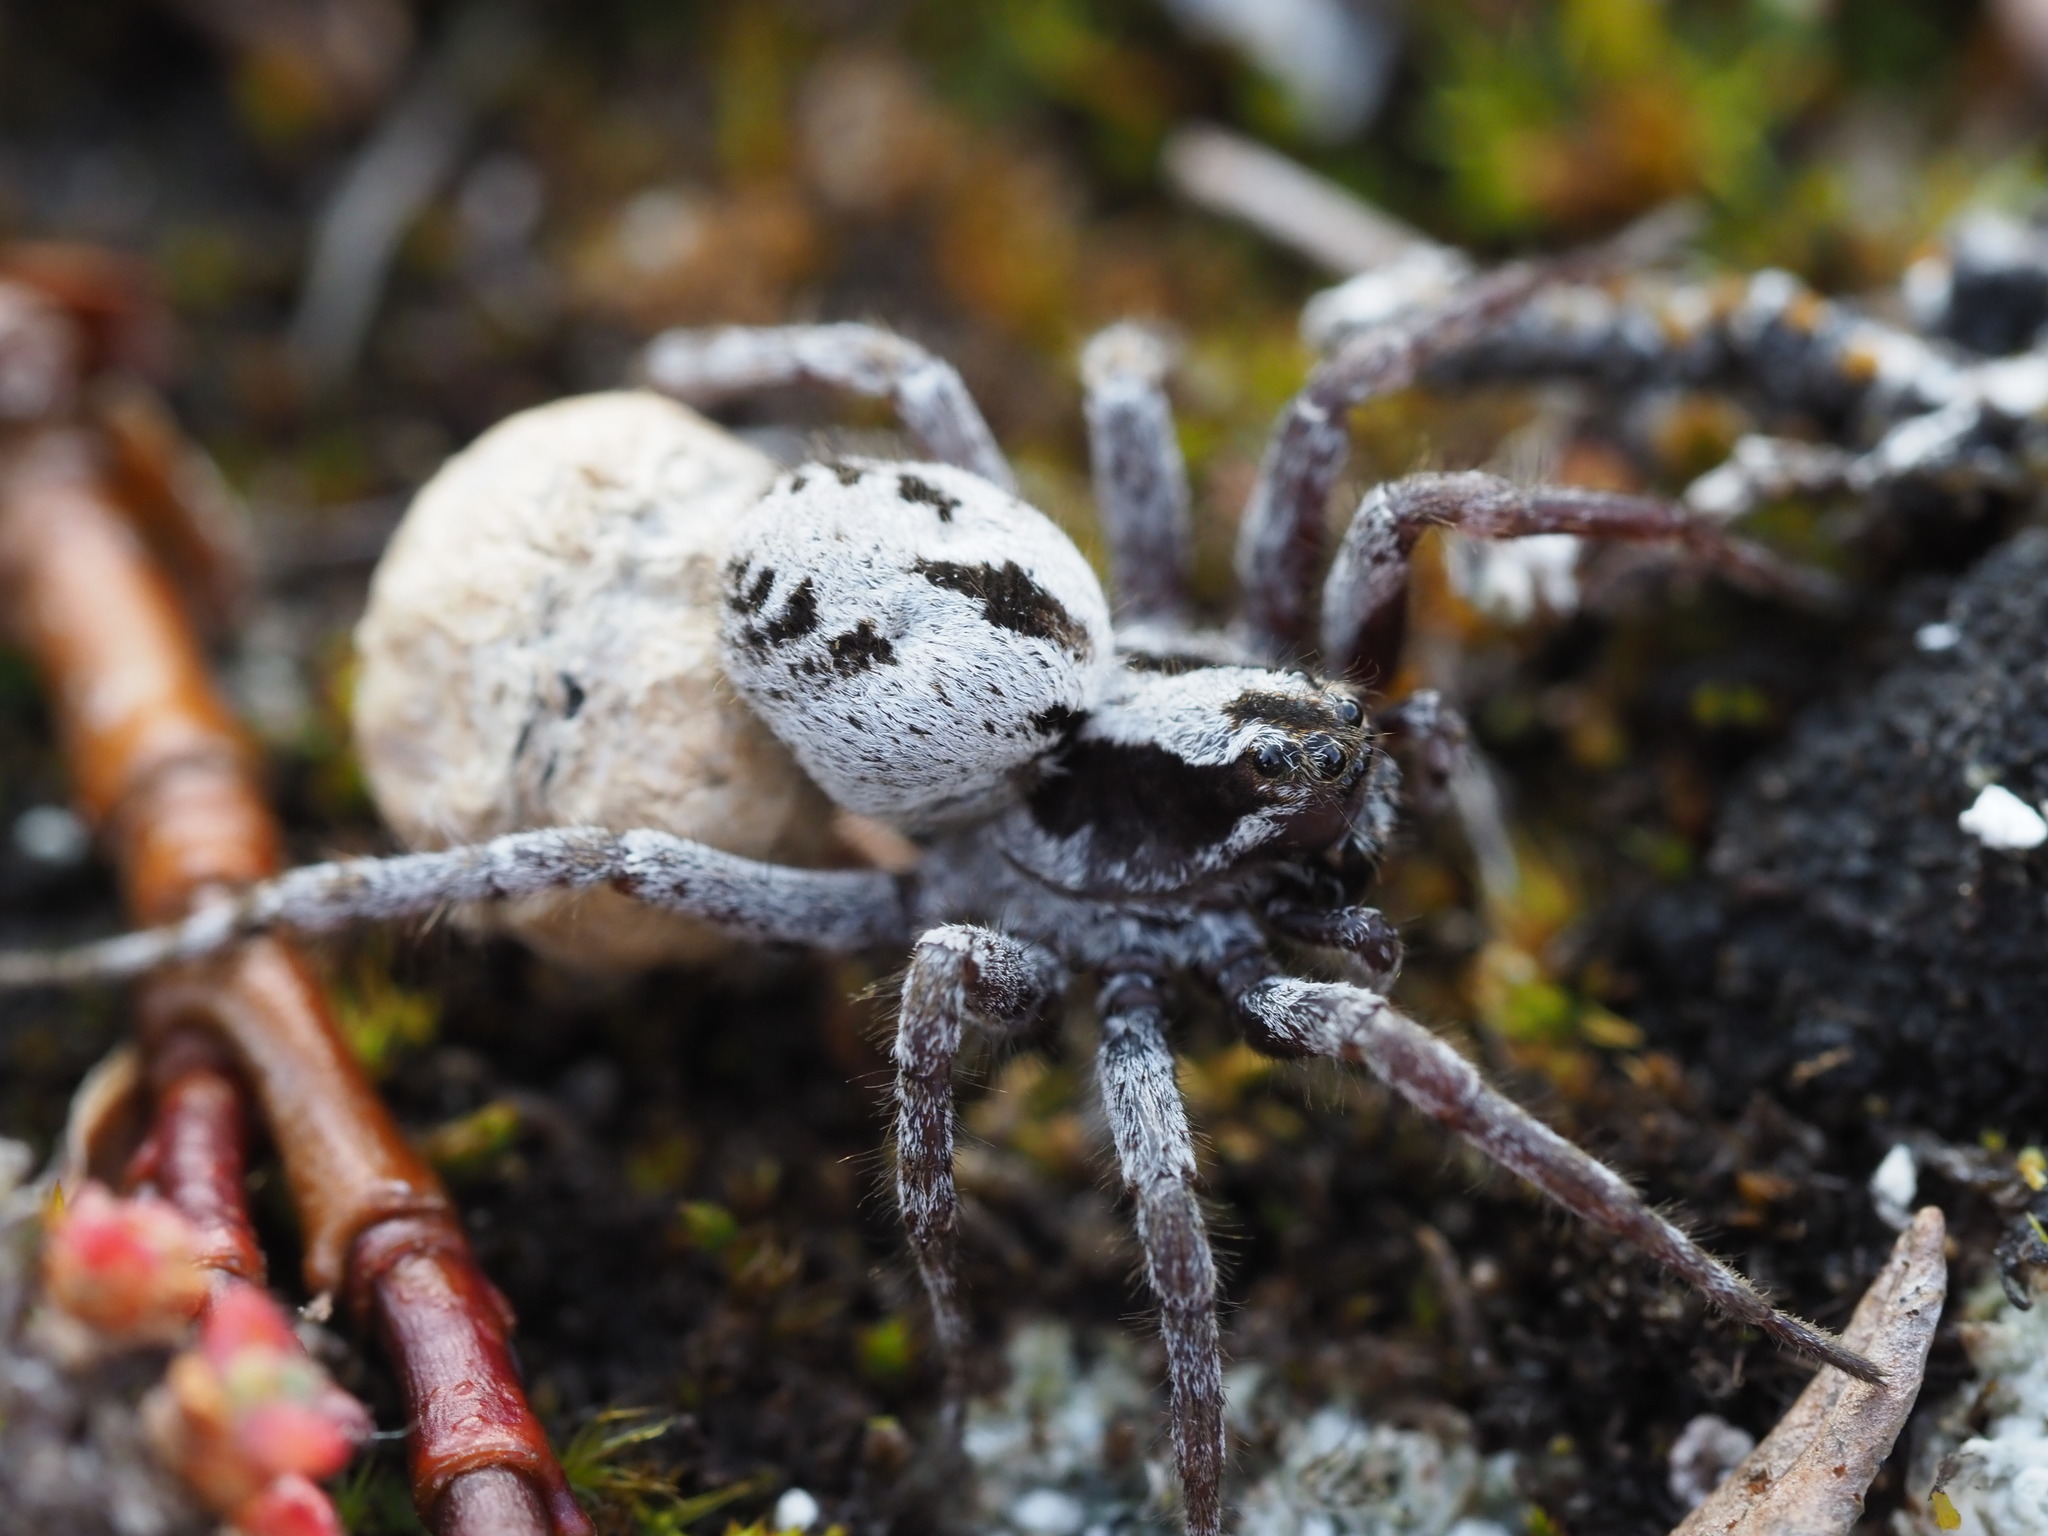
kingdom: Animalia
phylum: Arthropoda
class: Arachnida
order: Araneae
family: Lycosidae
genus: Alopecosa
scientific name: Alopecosa exasperans
